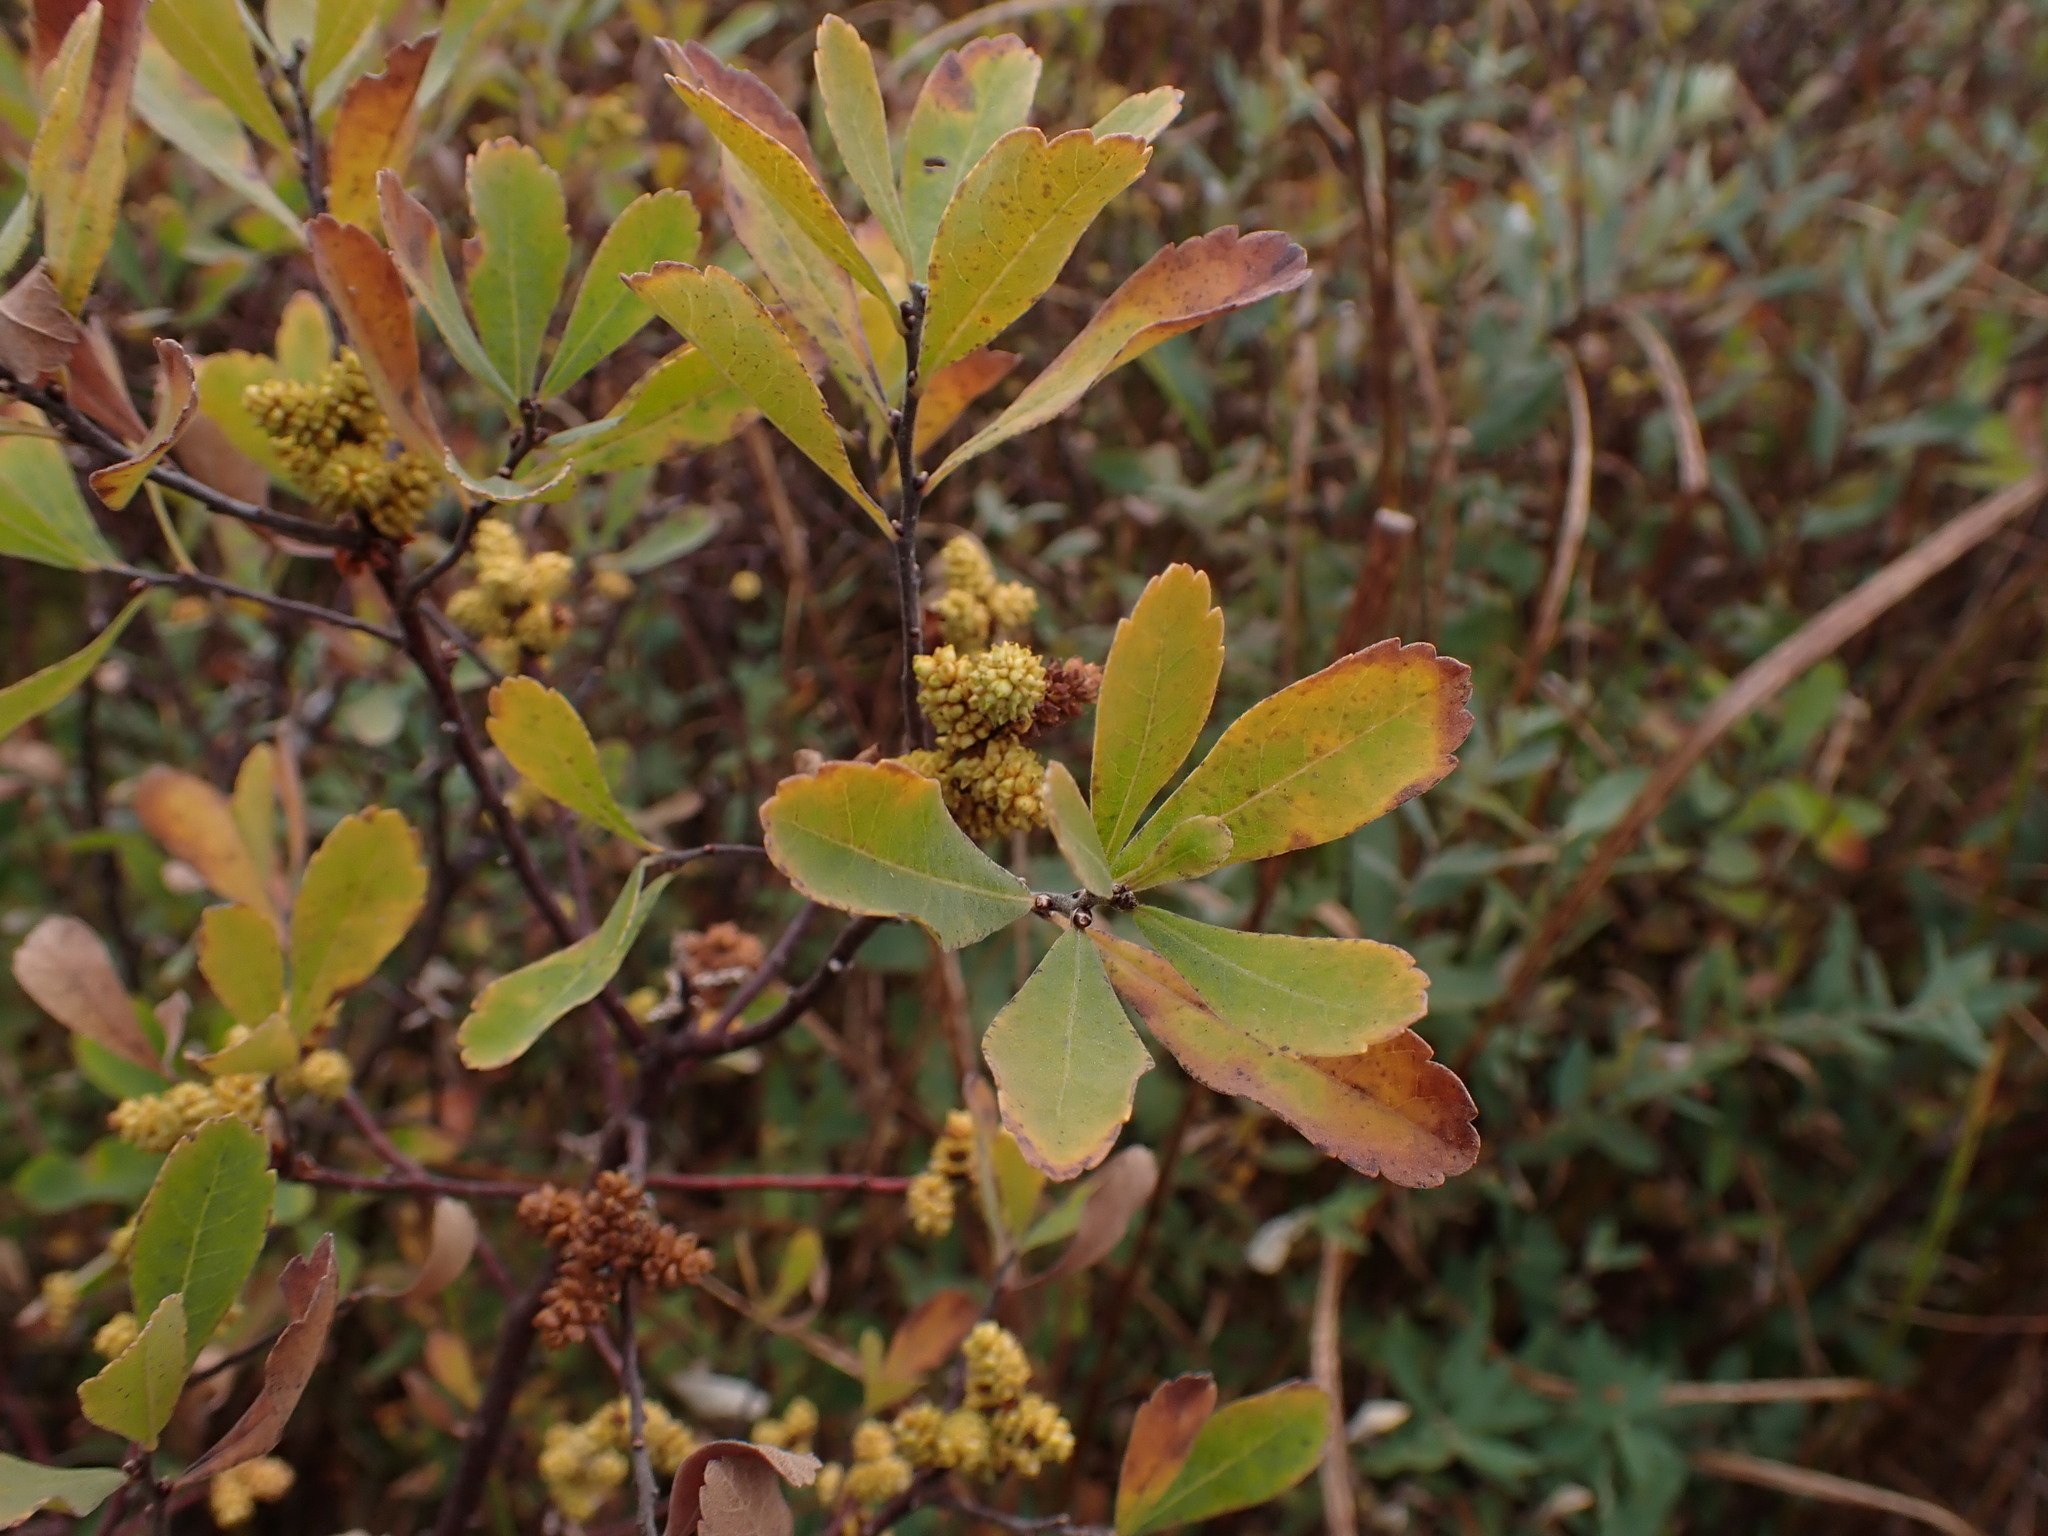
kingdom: Plantae
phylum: Tracheophyta
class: Magnoliopsida
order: Fagales
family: Myricaceae
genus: Myrica
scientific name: Myrica gale
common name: Sweet gale
